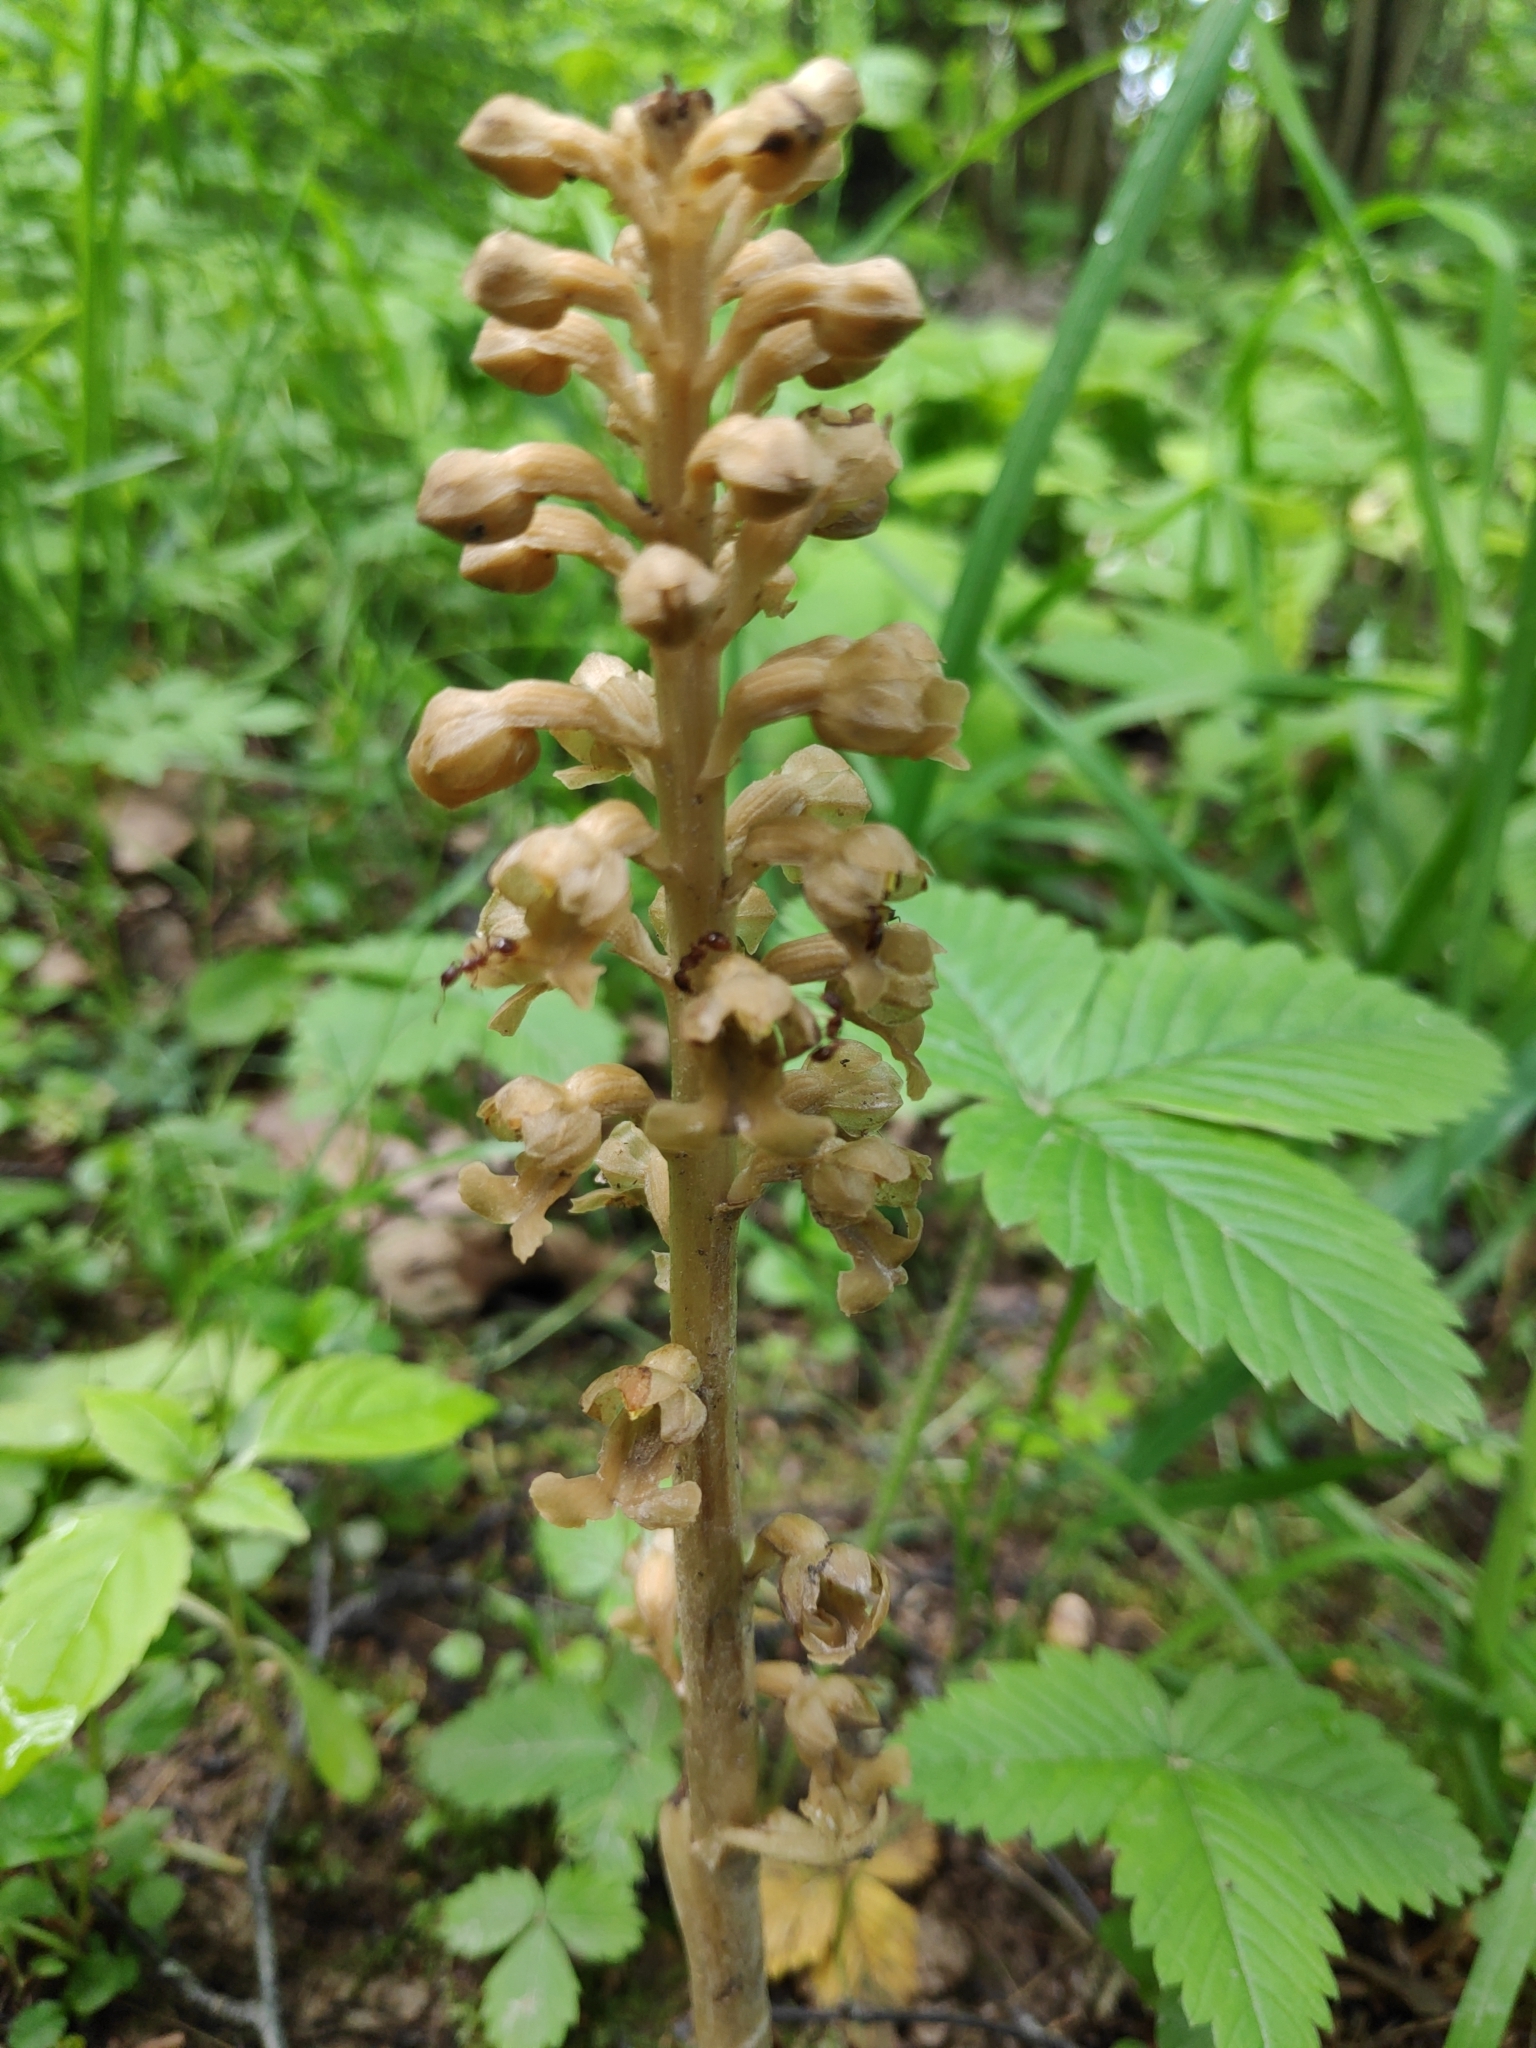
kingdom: Plantae
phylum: Tracheophyta
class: Liliopsida
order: Asparagales
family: Orchidaceae
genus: Neottia
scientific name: Neottia nidus-avis
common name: Bird's-nest orchid
